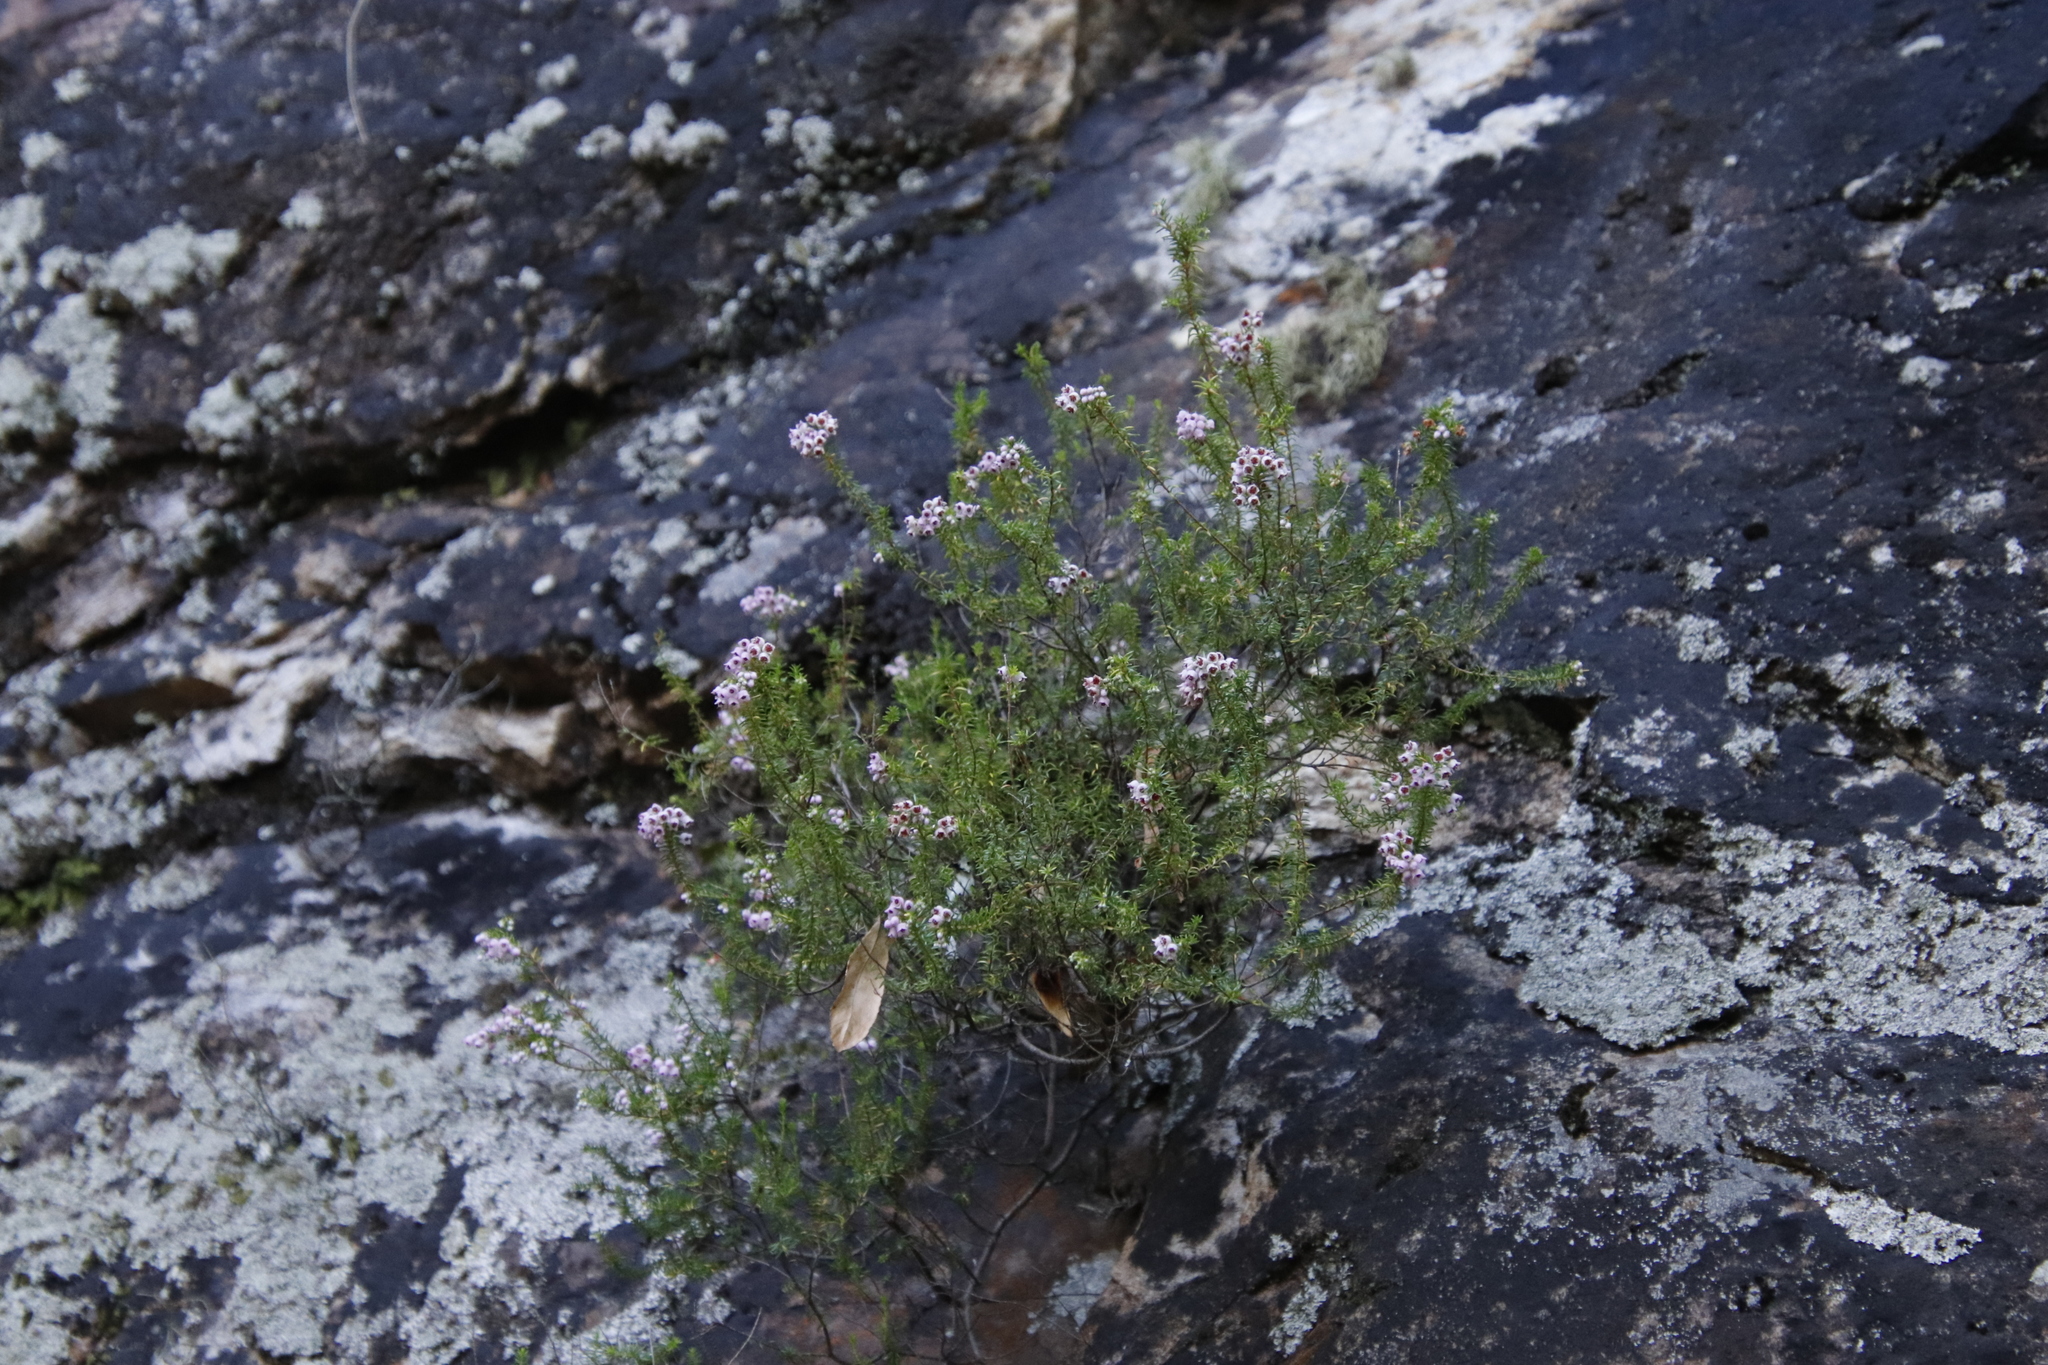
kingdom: Plantae
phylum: Tracheophyta
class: Magnoliopsida
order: Ericales
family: Ericaceae
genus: Erica
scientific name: Erica curvirostris
